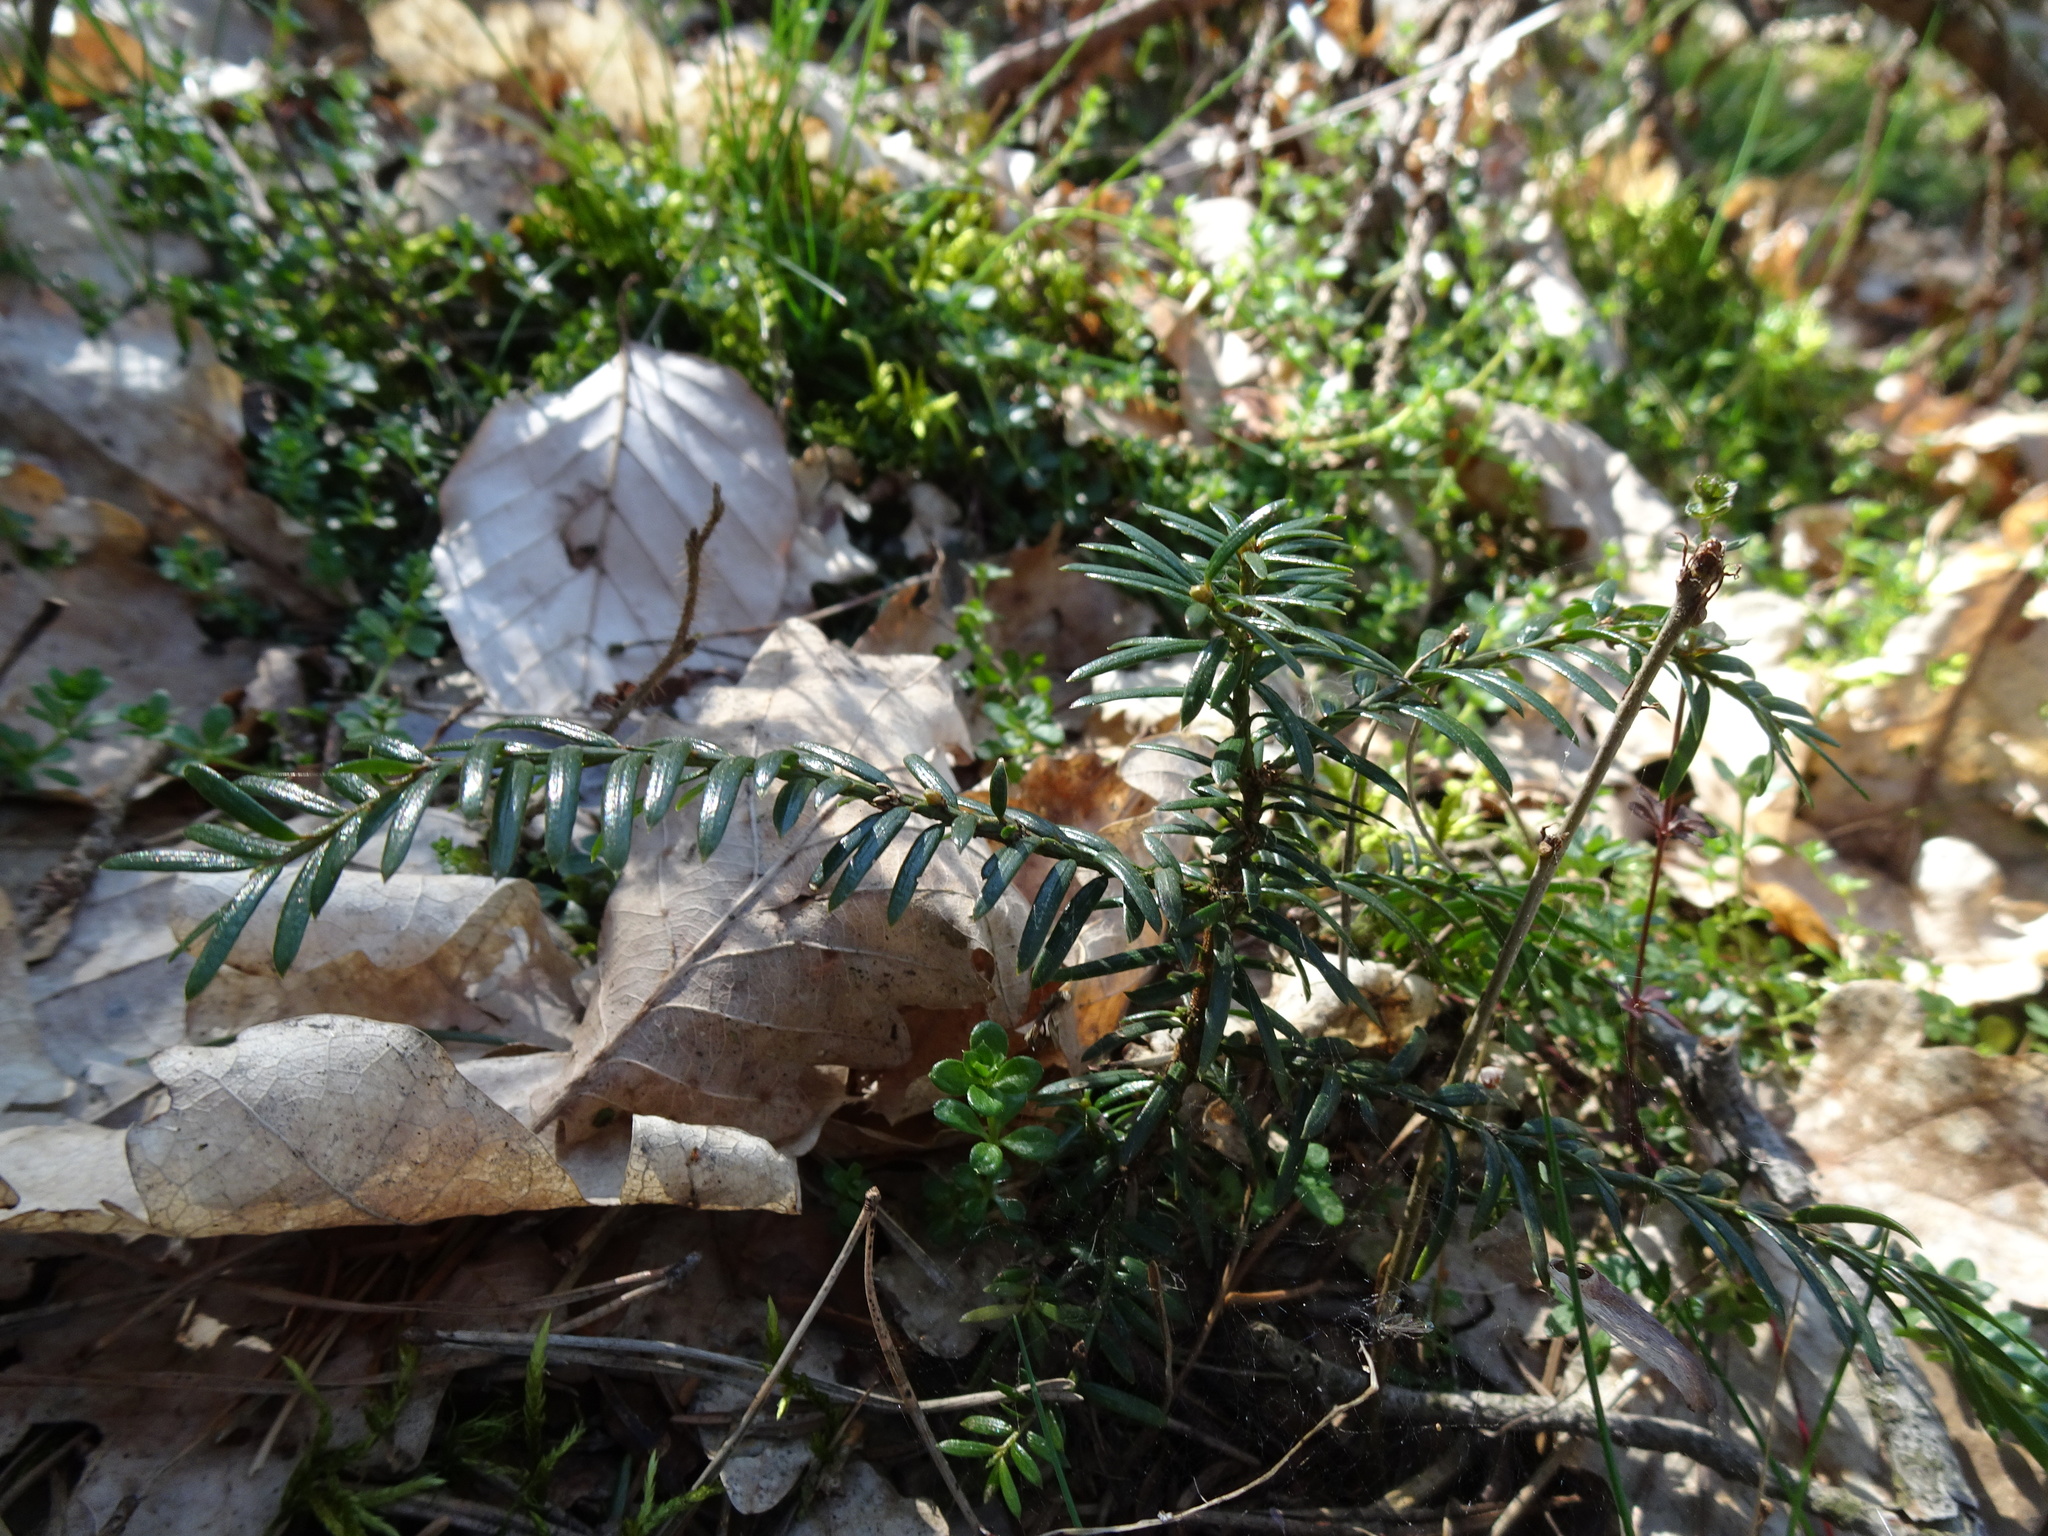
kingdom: Plantae
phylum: Tracheophyta
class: Pinopsida
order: Pinales
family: Taxaceae
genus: Taxus
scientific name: Taxus baccata
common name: Yew
